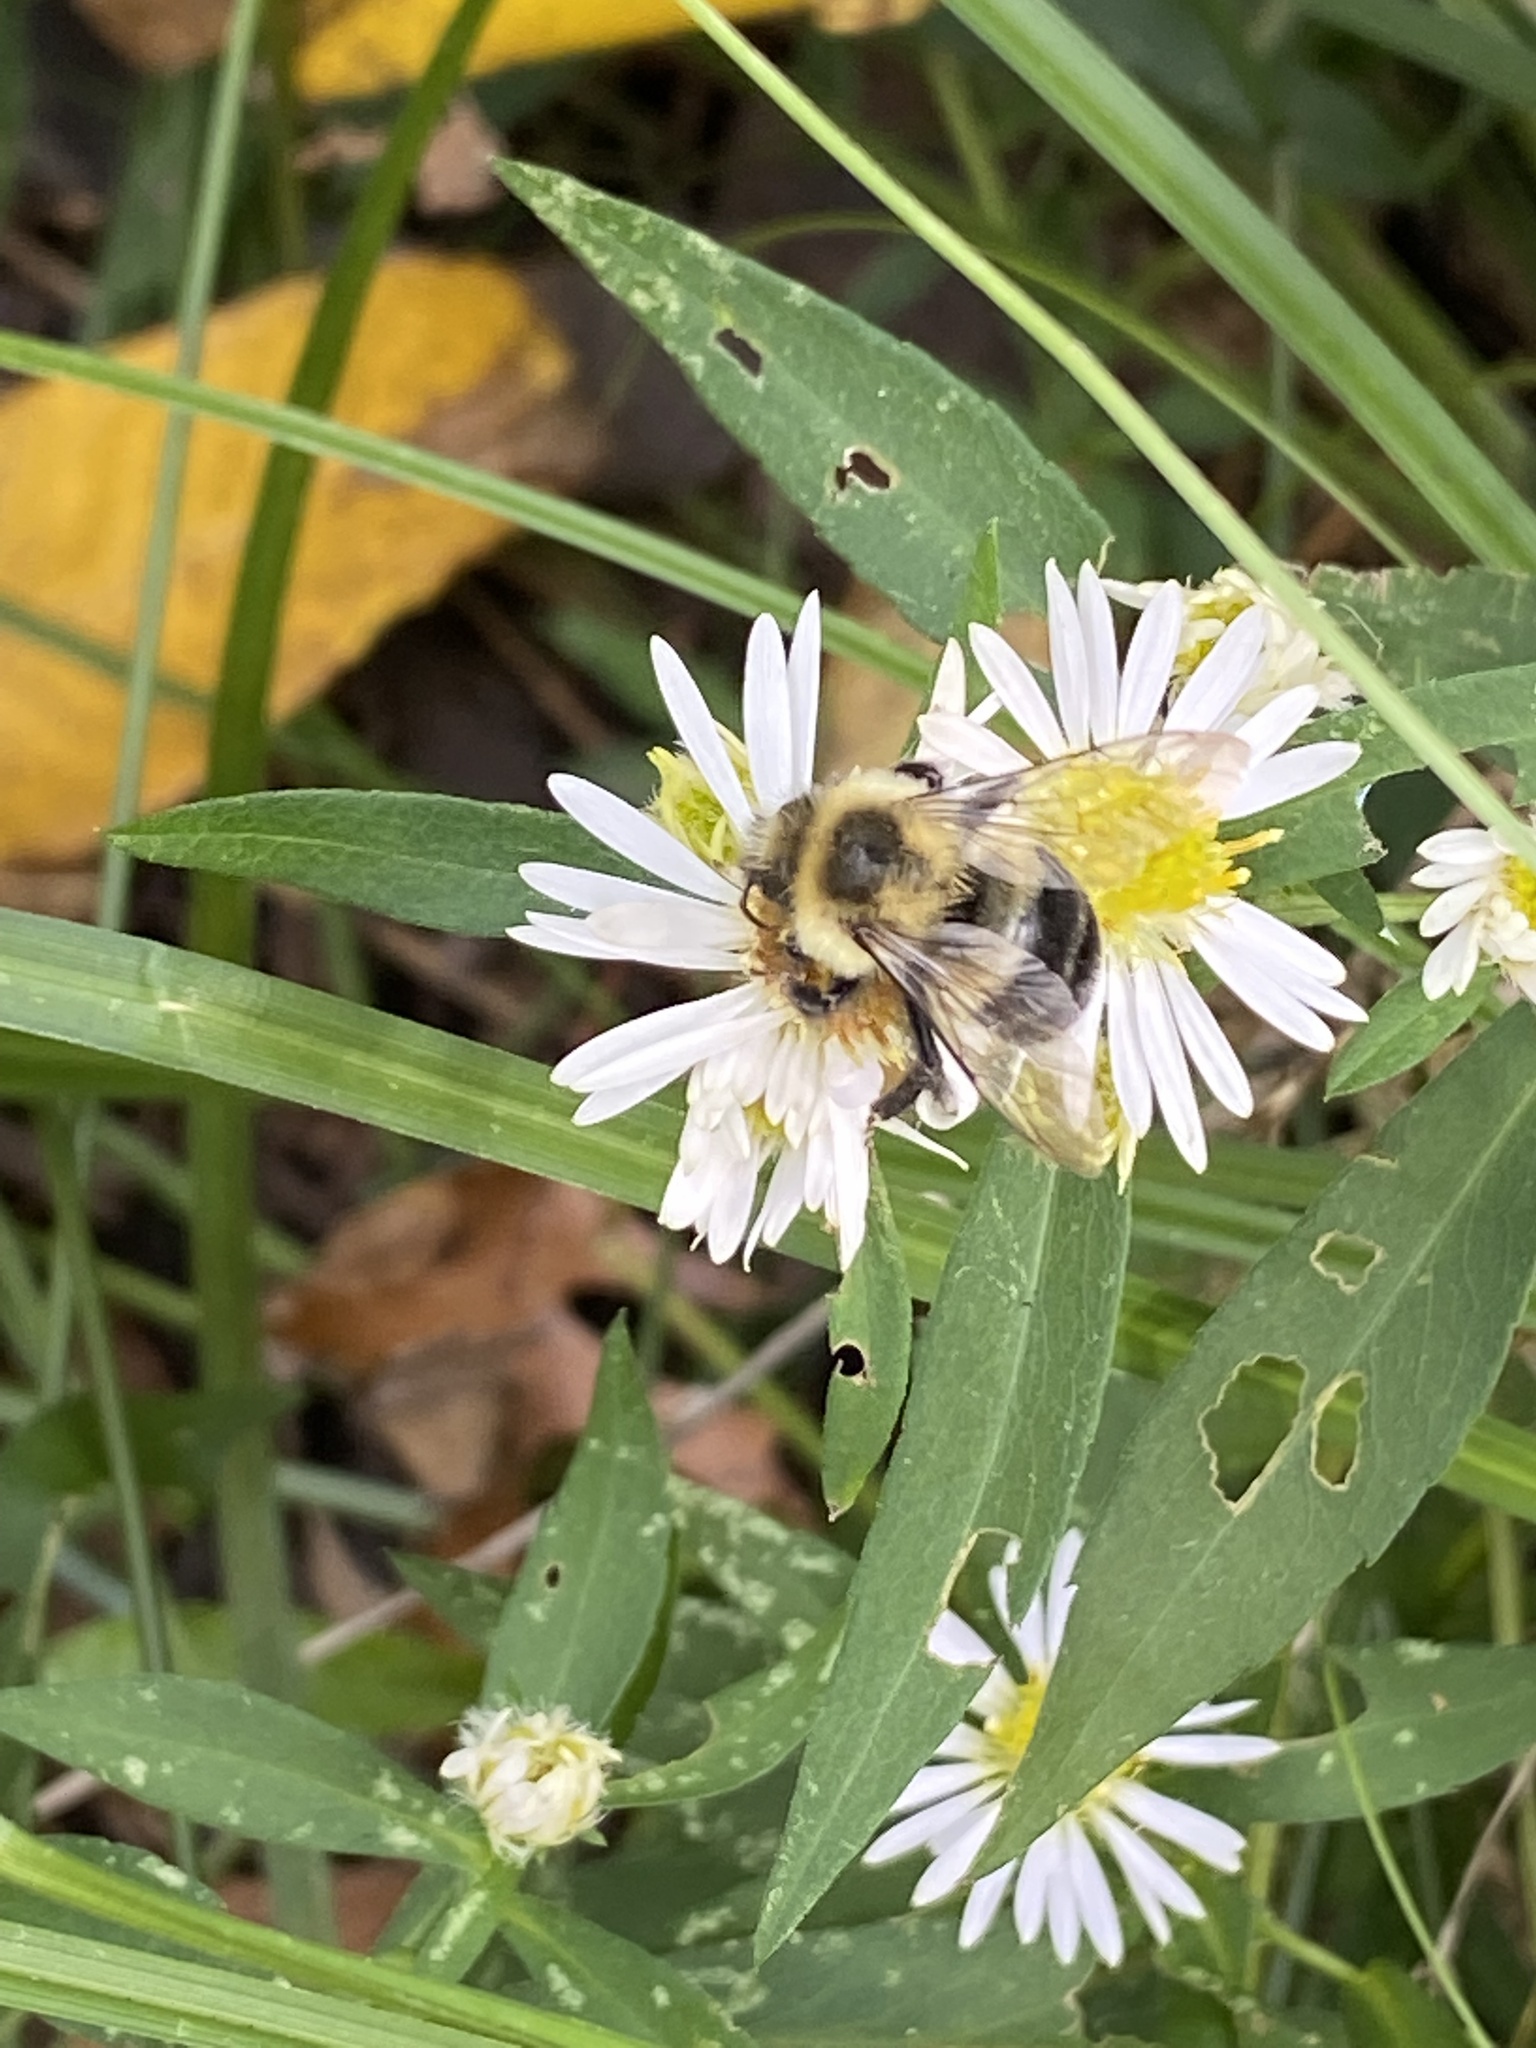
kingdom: Animalia
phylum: Arthropoda
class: Insecta
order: Hymenoptera
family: Apidae
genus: Bombus
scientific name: Bombus impatiens
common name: Common eastern bumble bee
